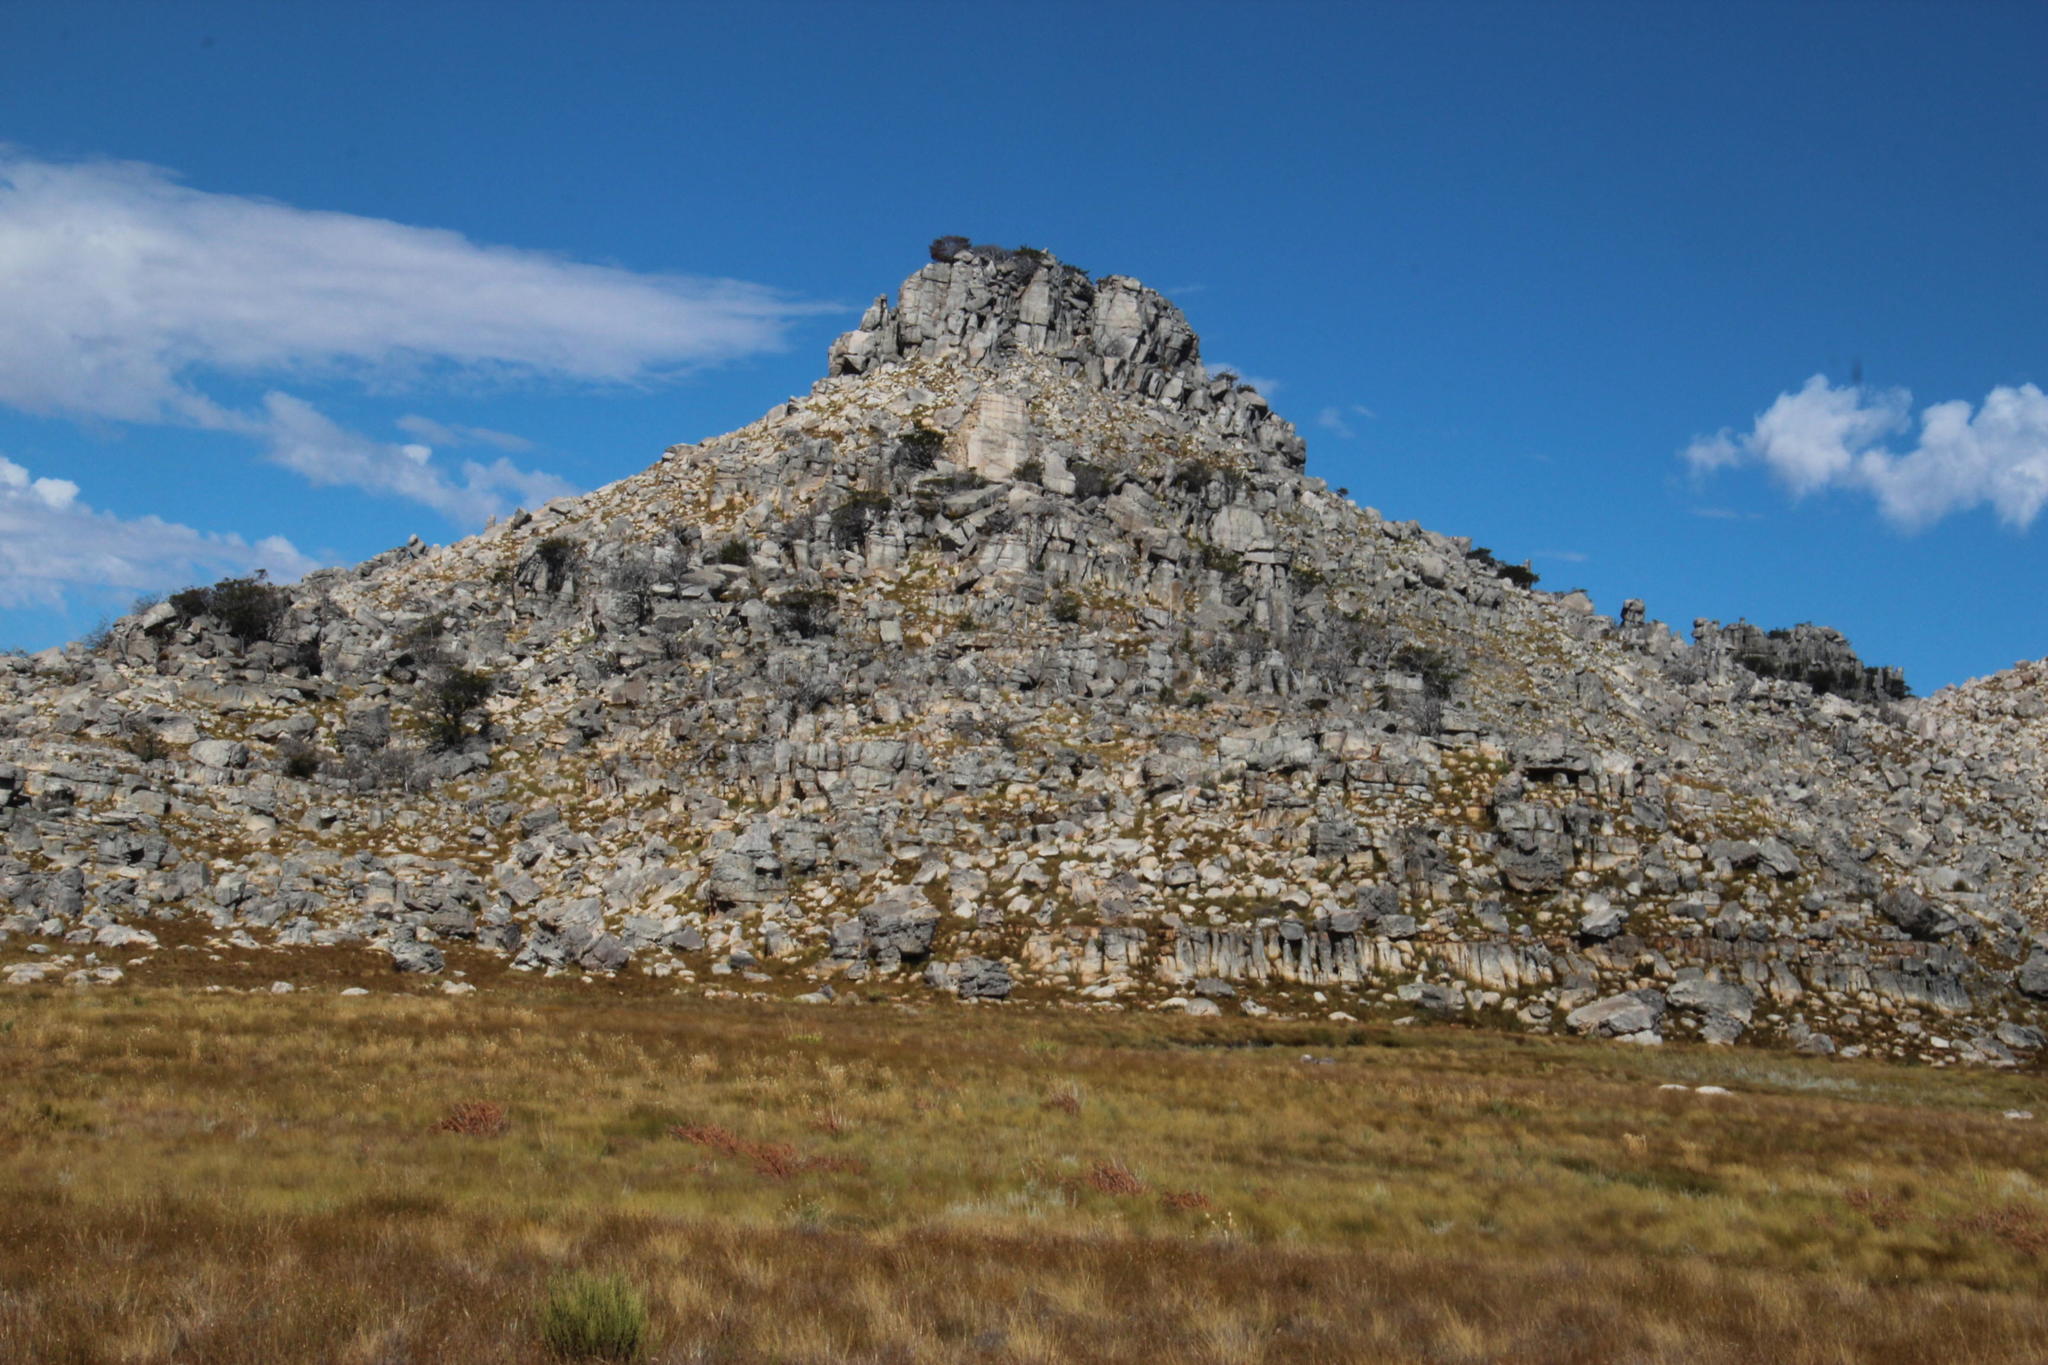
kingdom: Plantae
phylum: Tracheophyta
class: Pinopsida
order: Pinales
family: Cupressaceae
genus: Widdringtonia
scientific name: Widdringtonia nodiflora
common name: Cape cypress
